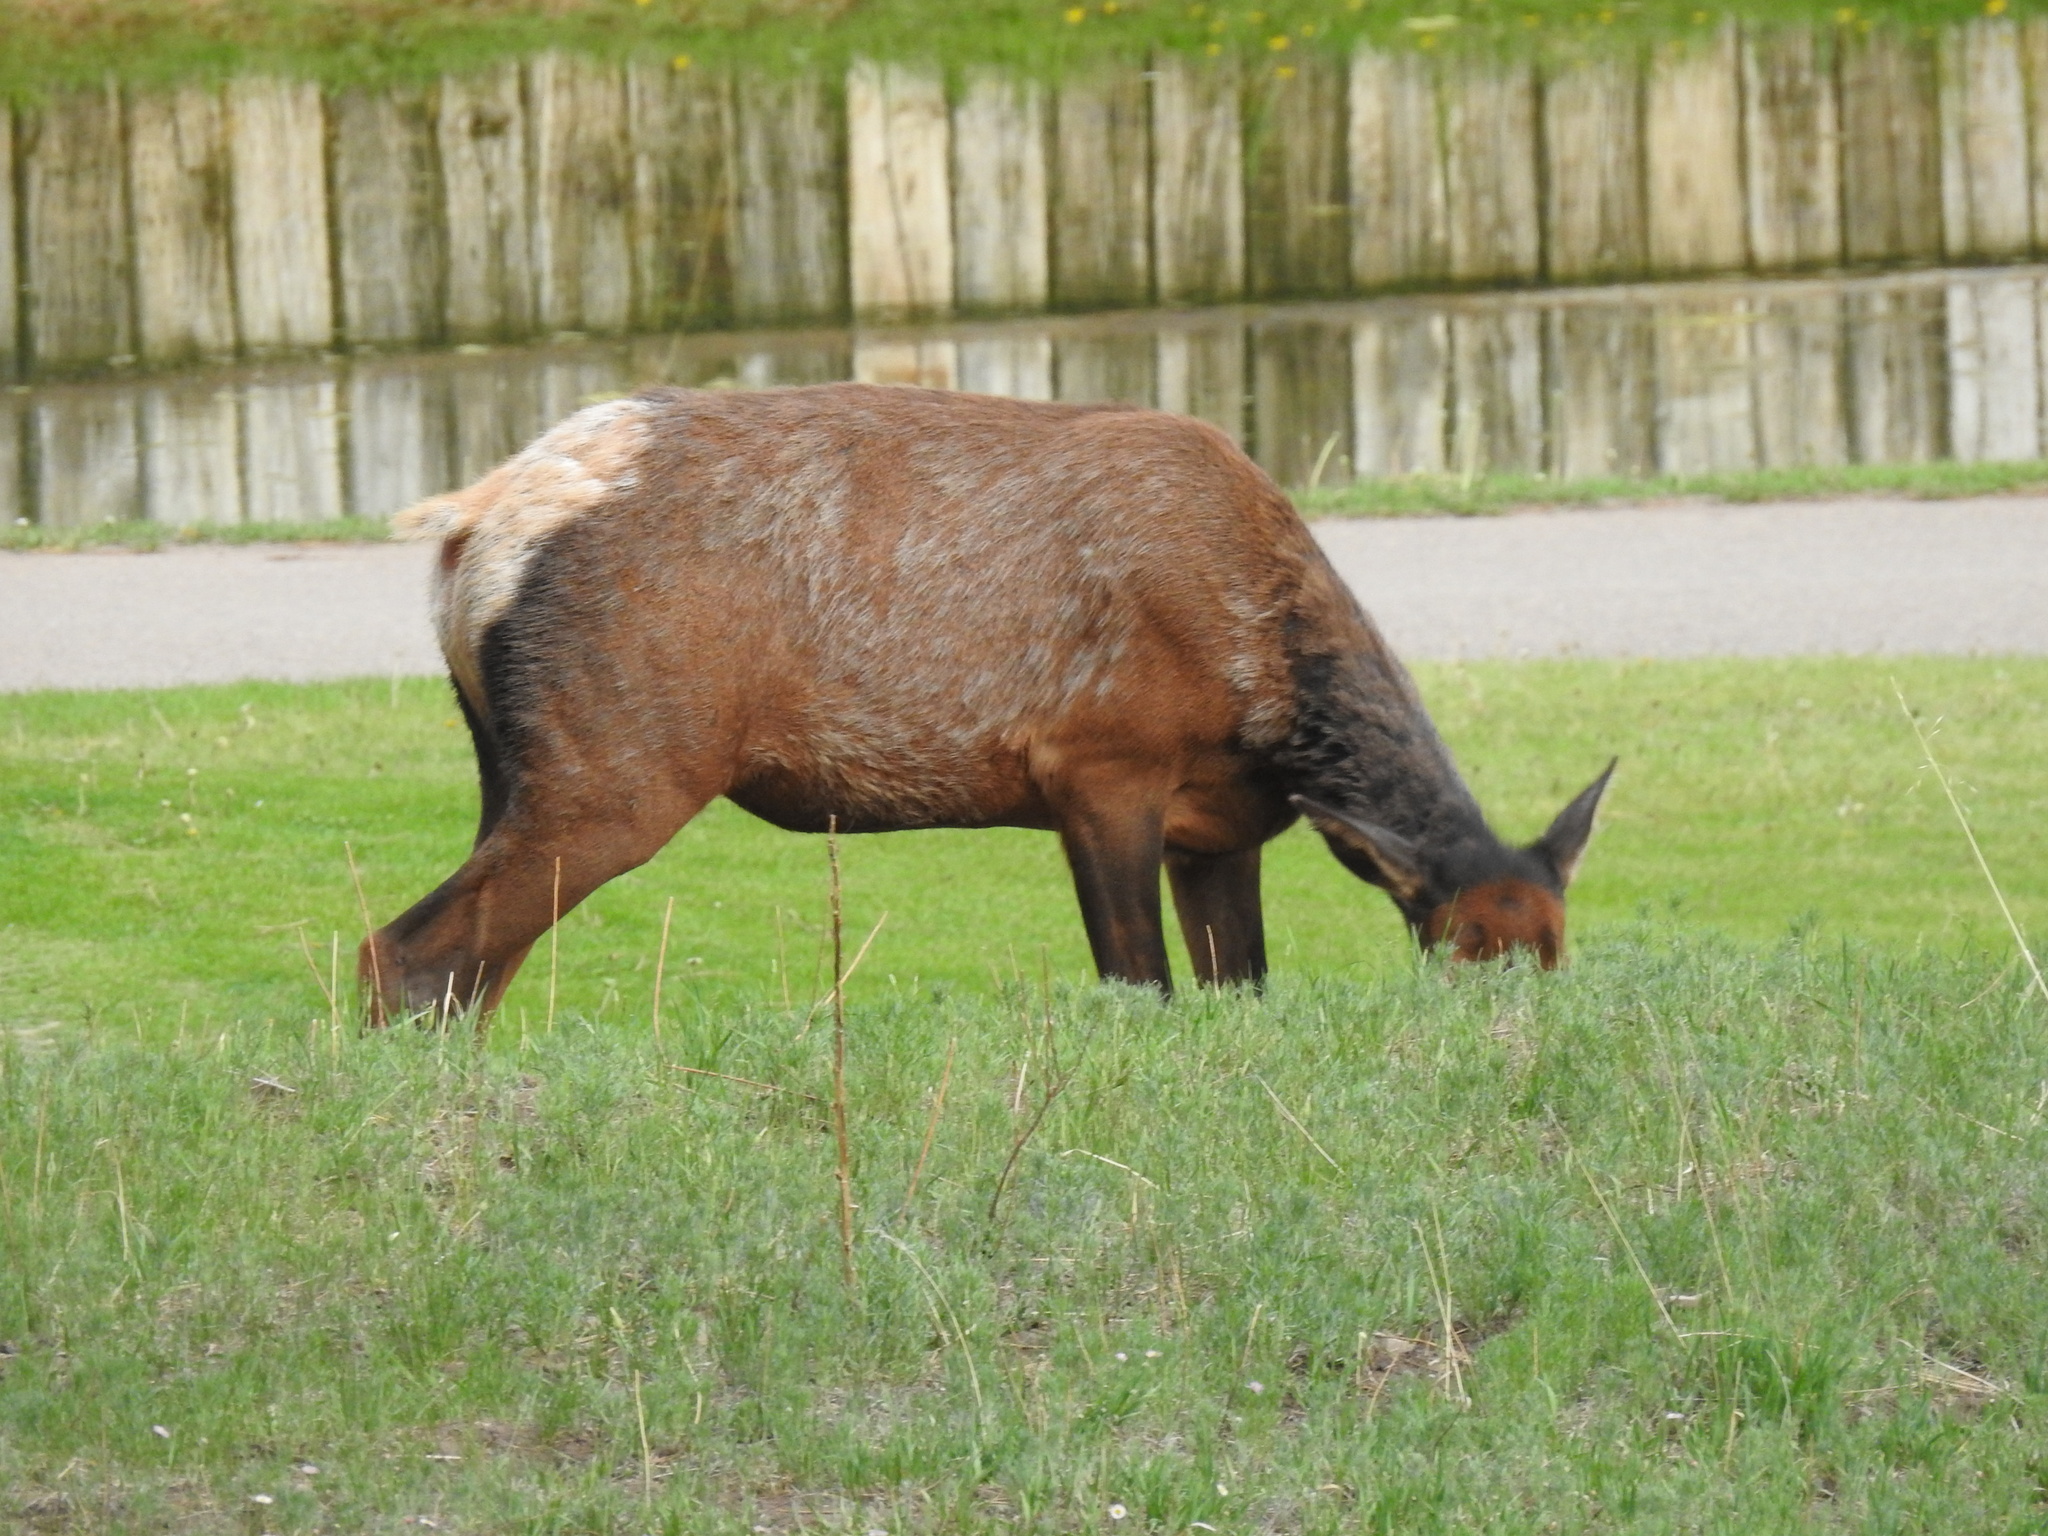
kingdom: Animalia
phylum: Chordata
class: Mammalia
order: Artiodactyla
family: Cervidae
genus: Cervus
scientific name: Cervus elaphus
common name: Red deer
